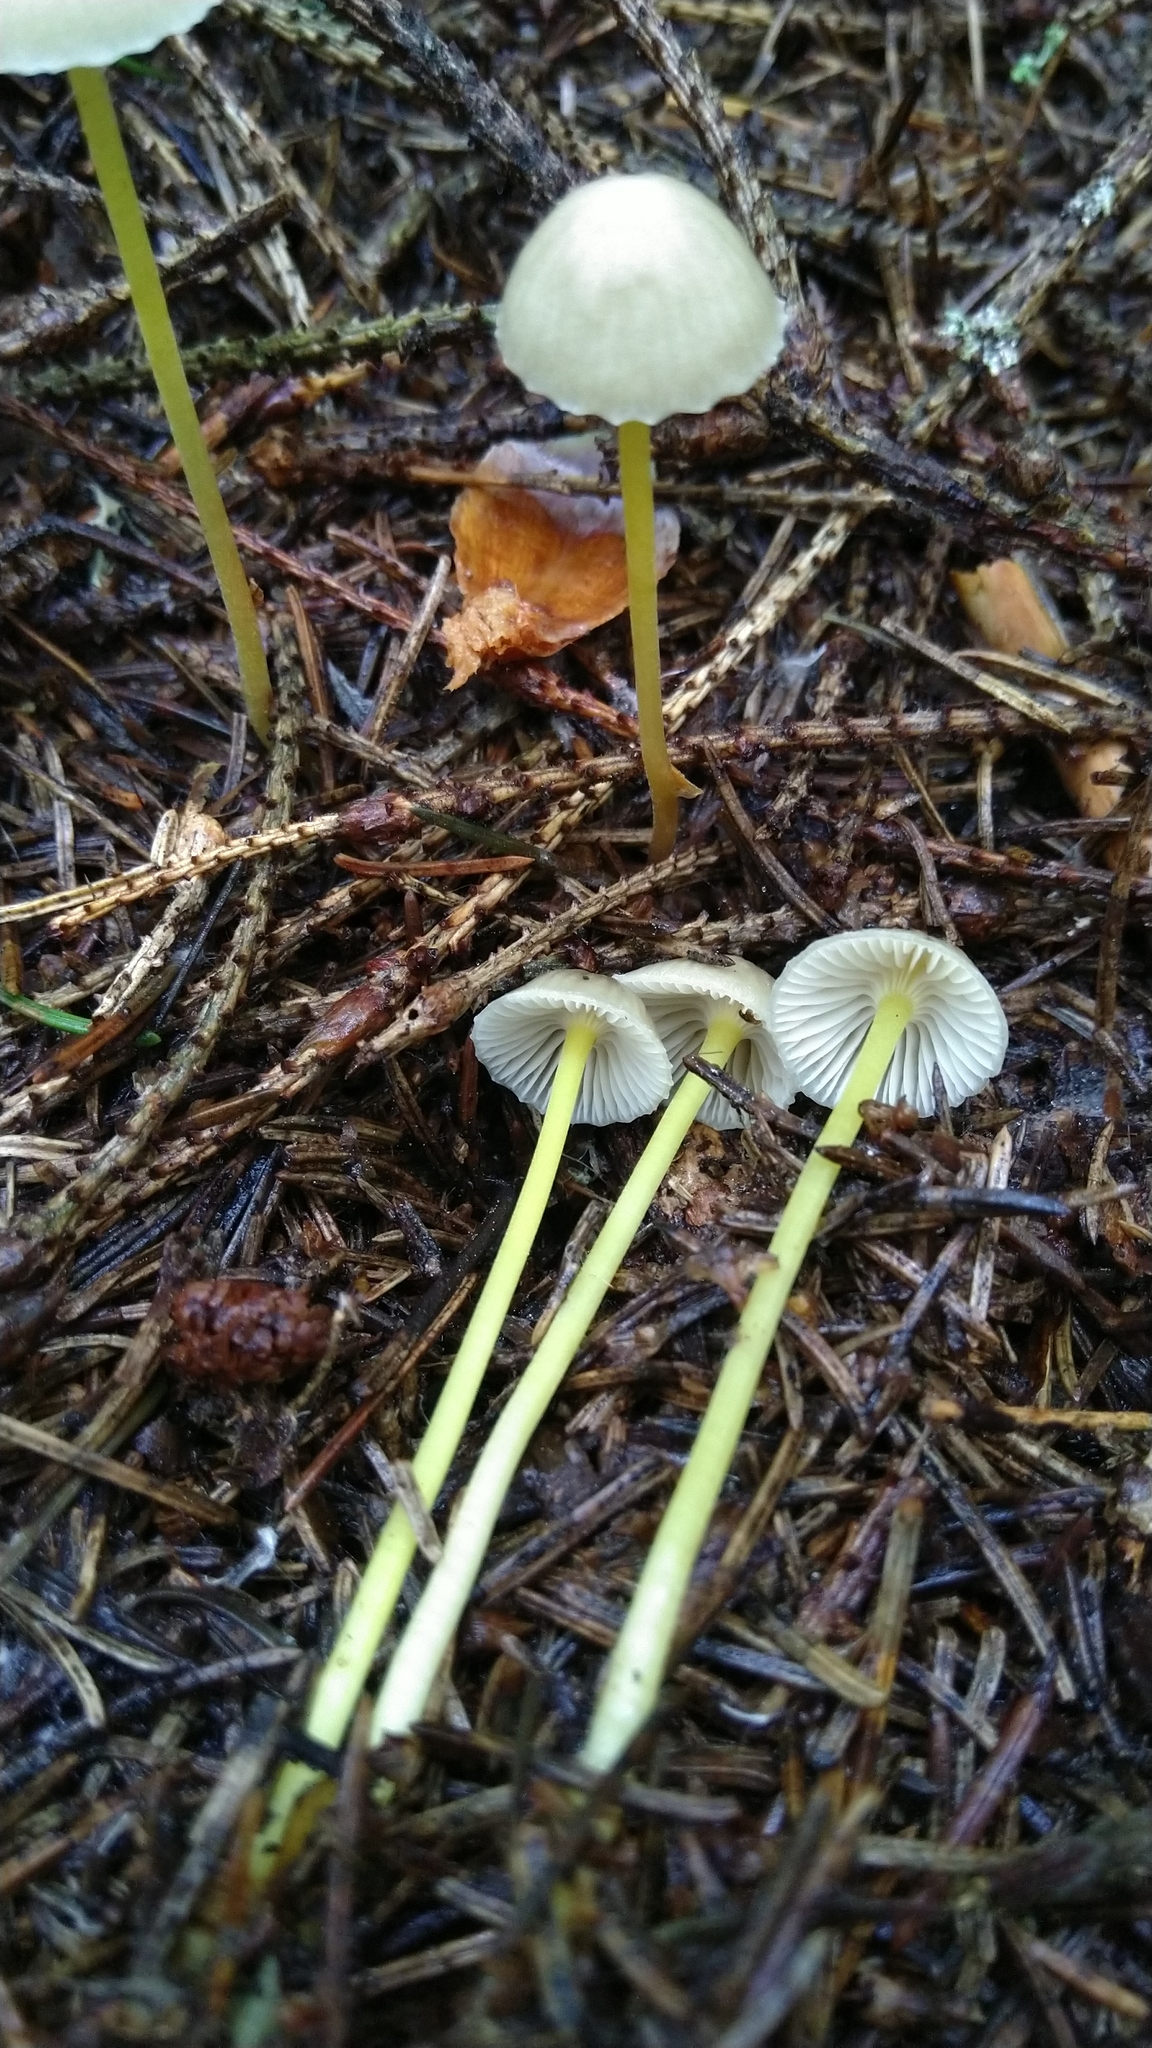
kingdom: Fungi
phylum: Basidiomycota
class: Agaricomycetes
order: Agaricales
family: Mycenaceae
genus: Mycena
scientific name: Mycena epipterygia
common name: Yellowleg bonnet
